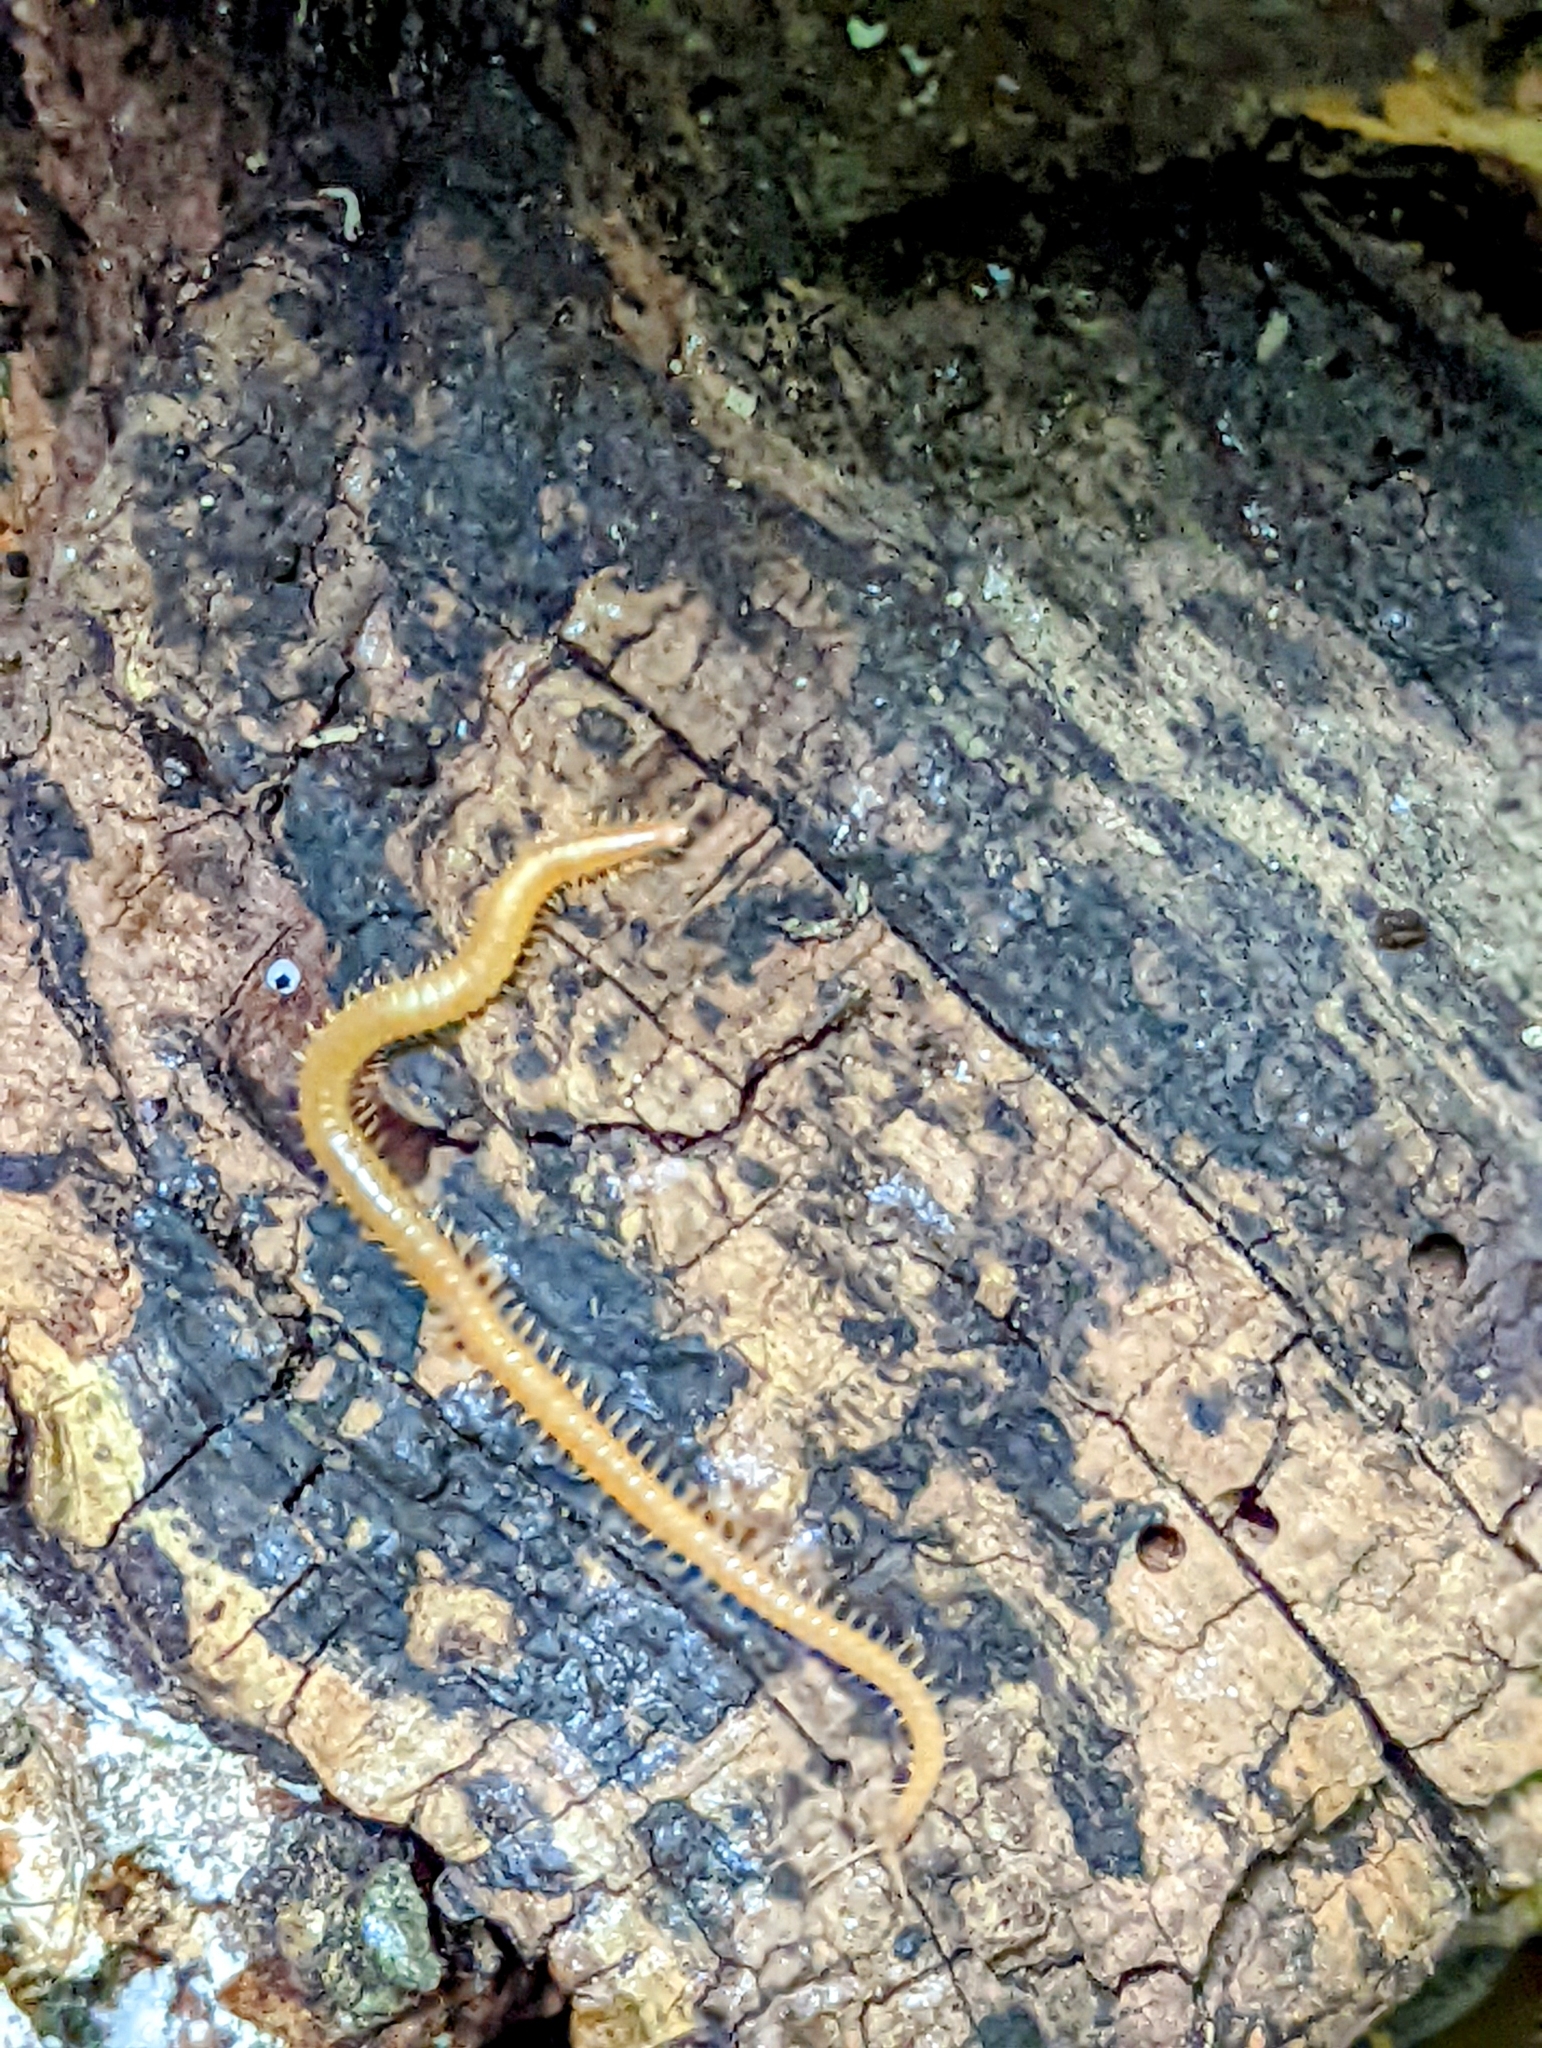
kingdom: Animalia
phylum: Arthropoda
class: Chilopoda
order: Geophilomorpha
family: Himantariidae
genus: Stigmatogaster
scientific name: Stigmatogaster subterranea
